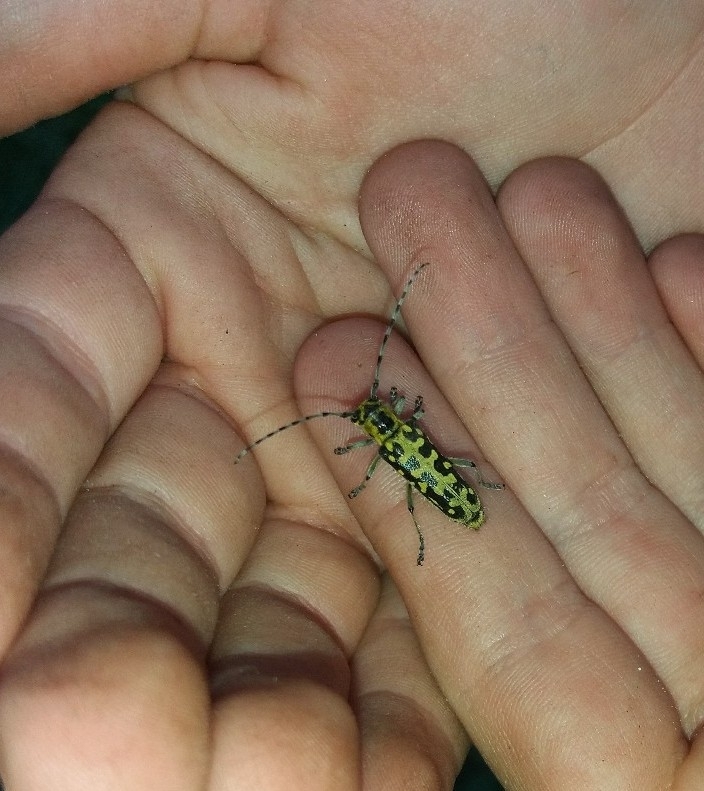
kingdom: Animalia
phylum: Arthropoda
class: Insecta
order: Coleoptera
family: Cerambycidae
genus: Saperda
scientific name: Saperda scalaris
